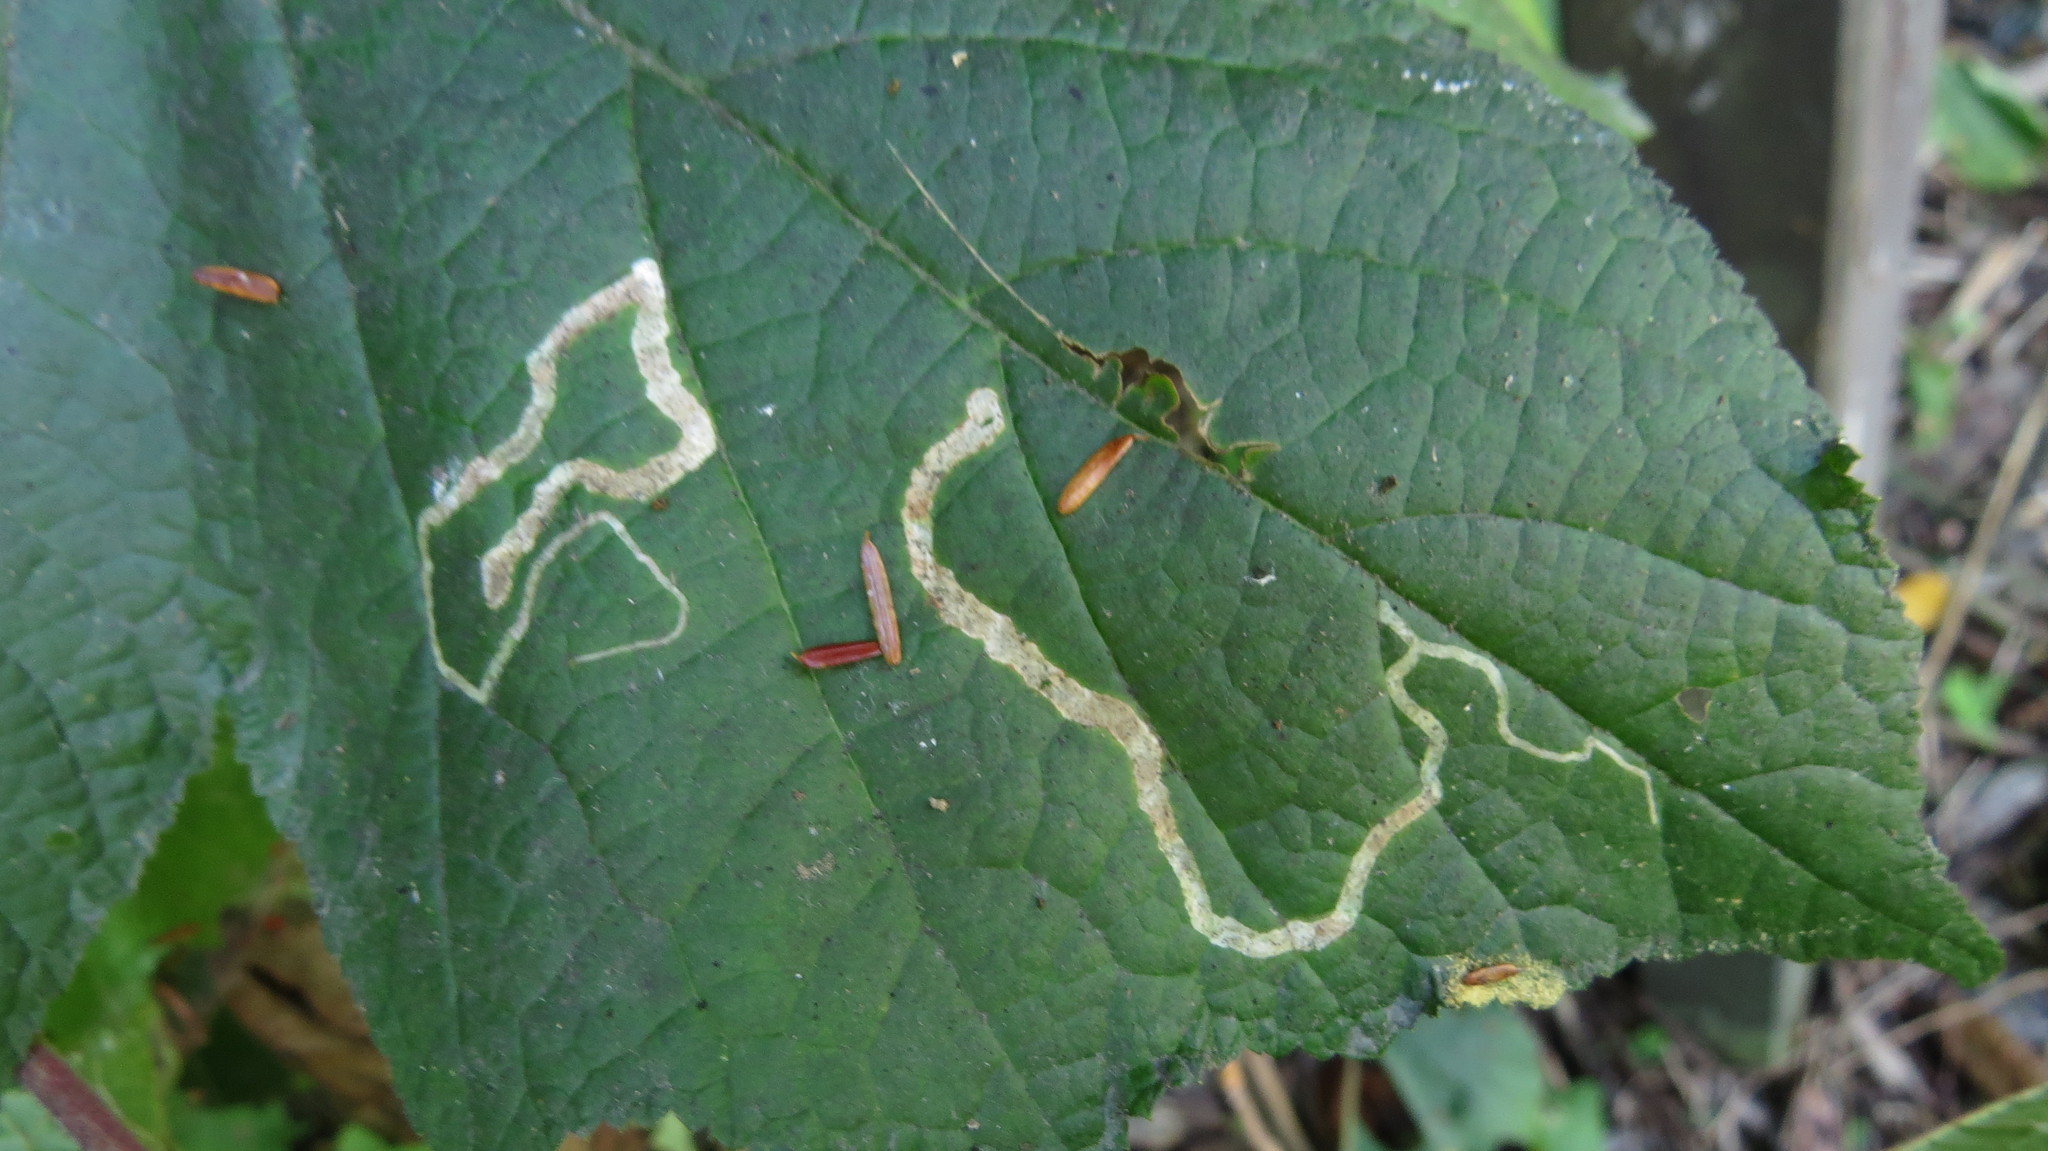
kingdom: Animalia
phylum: Arthropoda
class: Insecta
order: Diptera
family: Agromyzidae
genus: Agromyza
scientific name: Agromyza vockerothi
